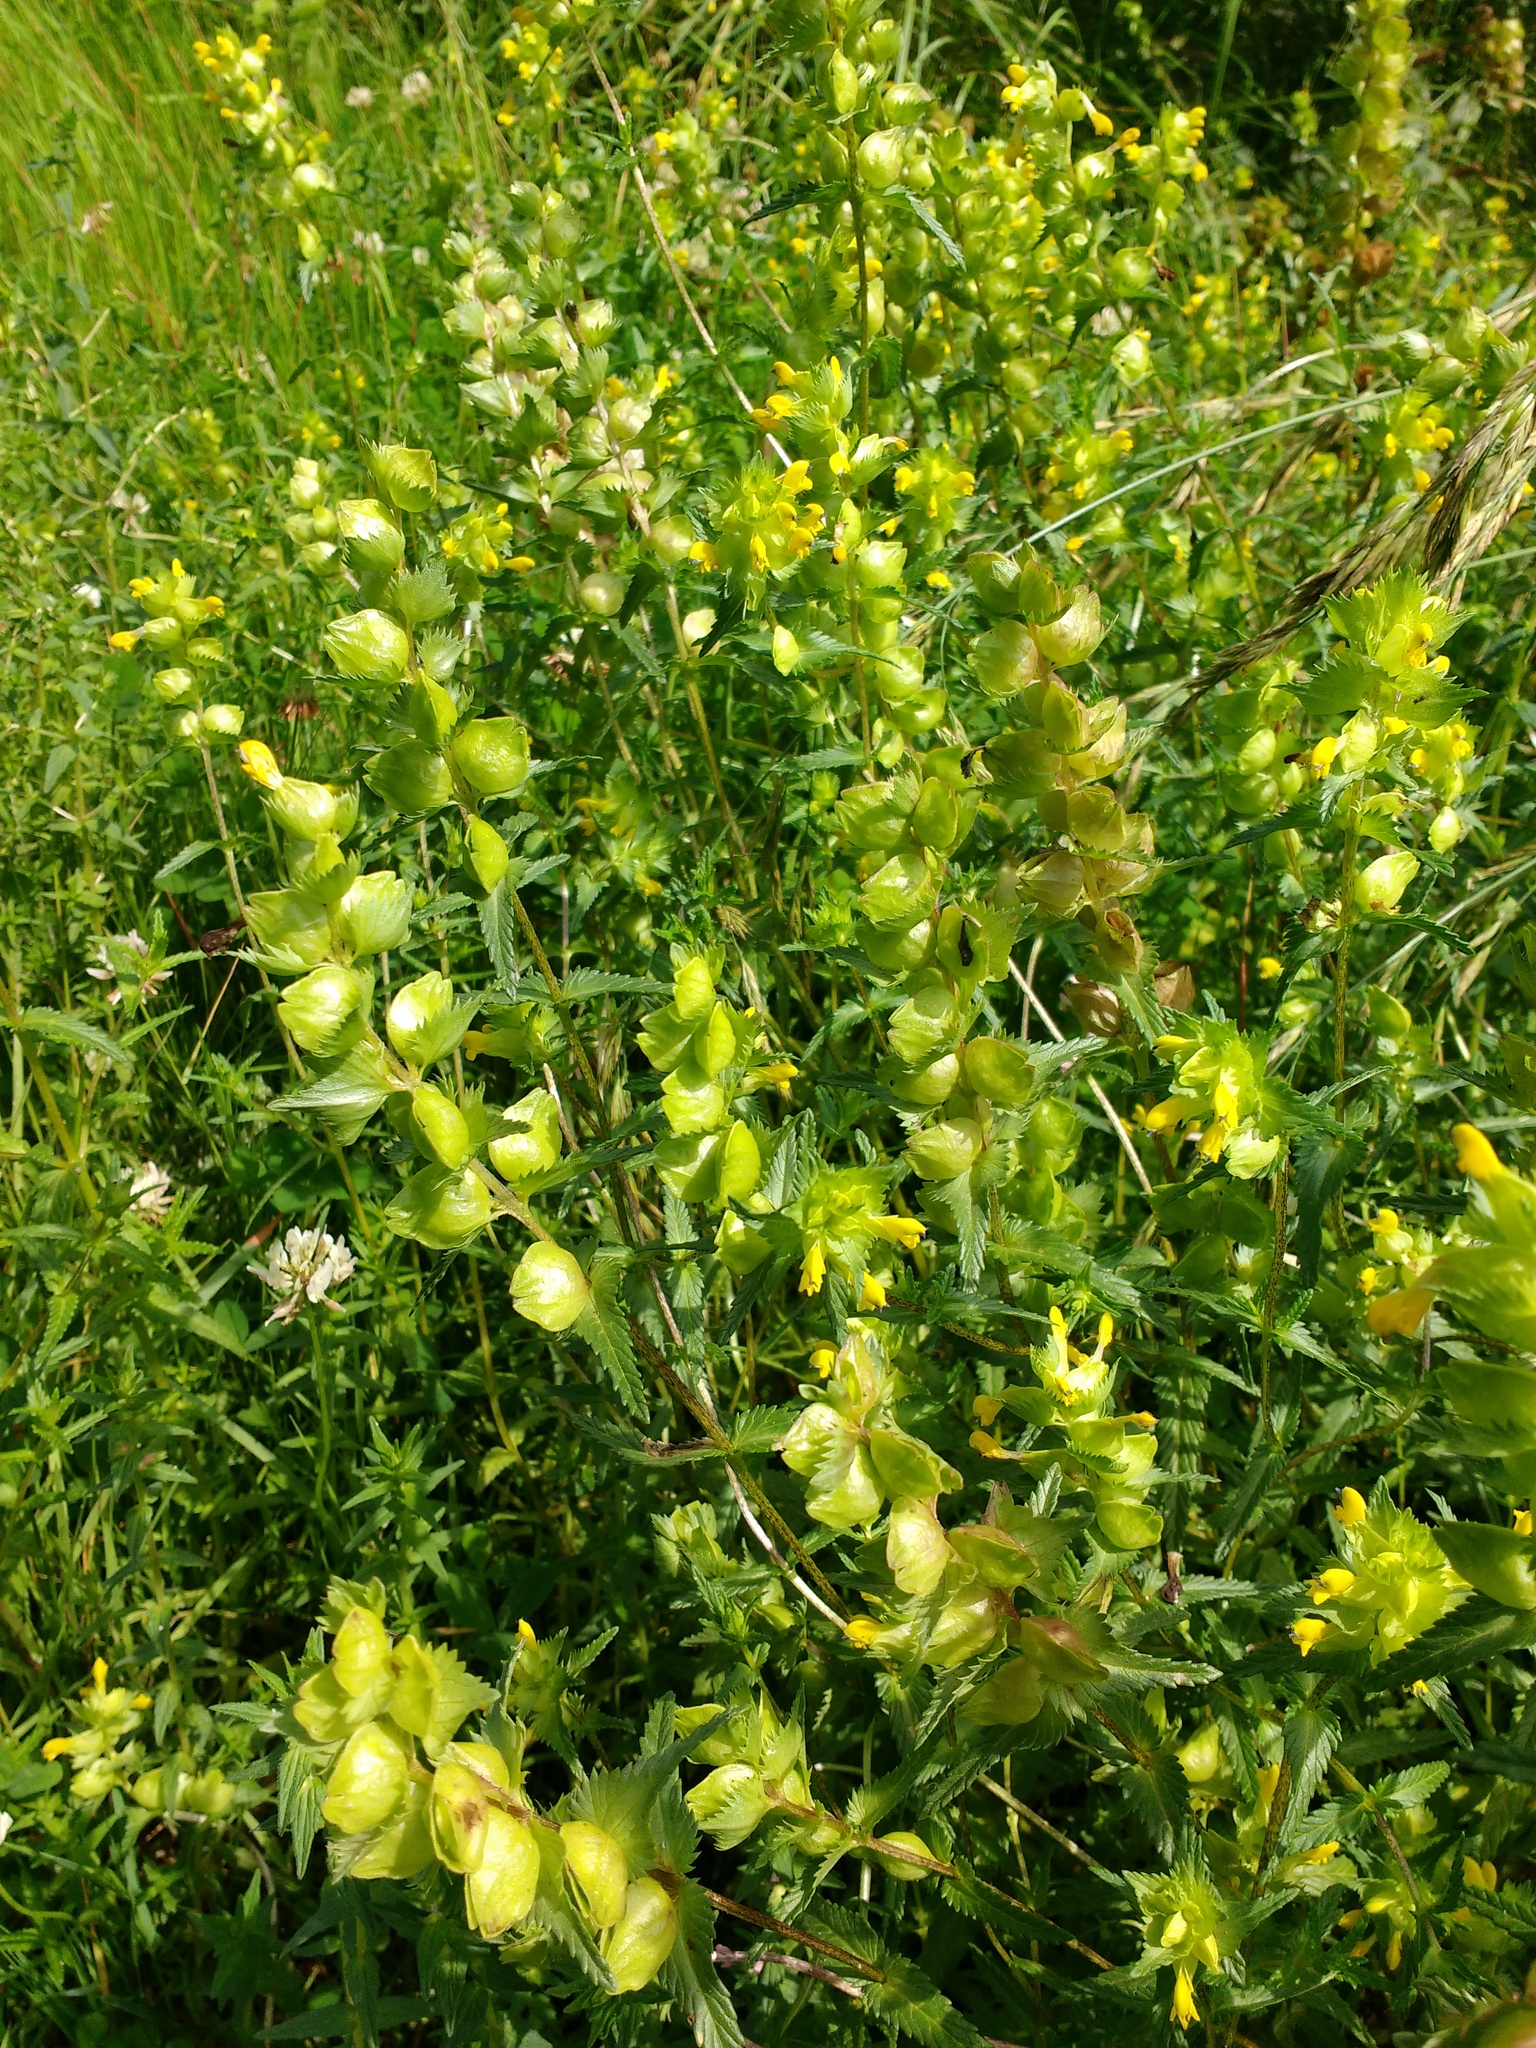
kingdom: Plantae
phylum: Tracheophyta
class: Magnoliopsida
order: Lamiales
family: Orobanchaceae
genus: Rhinanthus
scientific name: Rhinanthus minor
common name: Yellow-rattle
